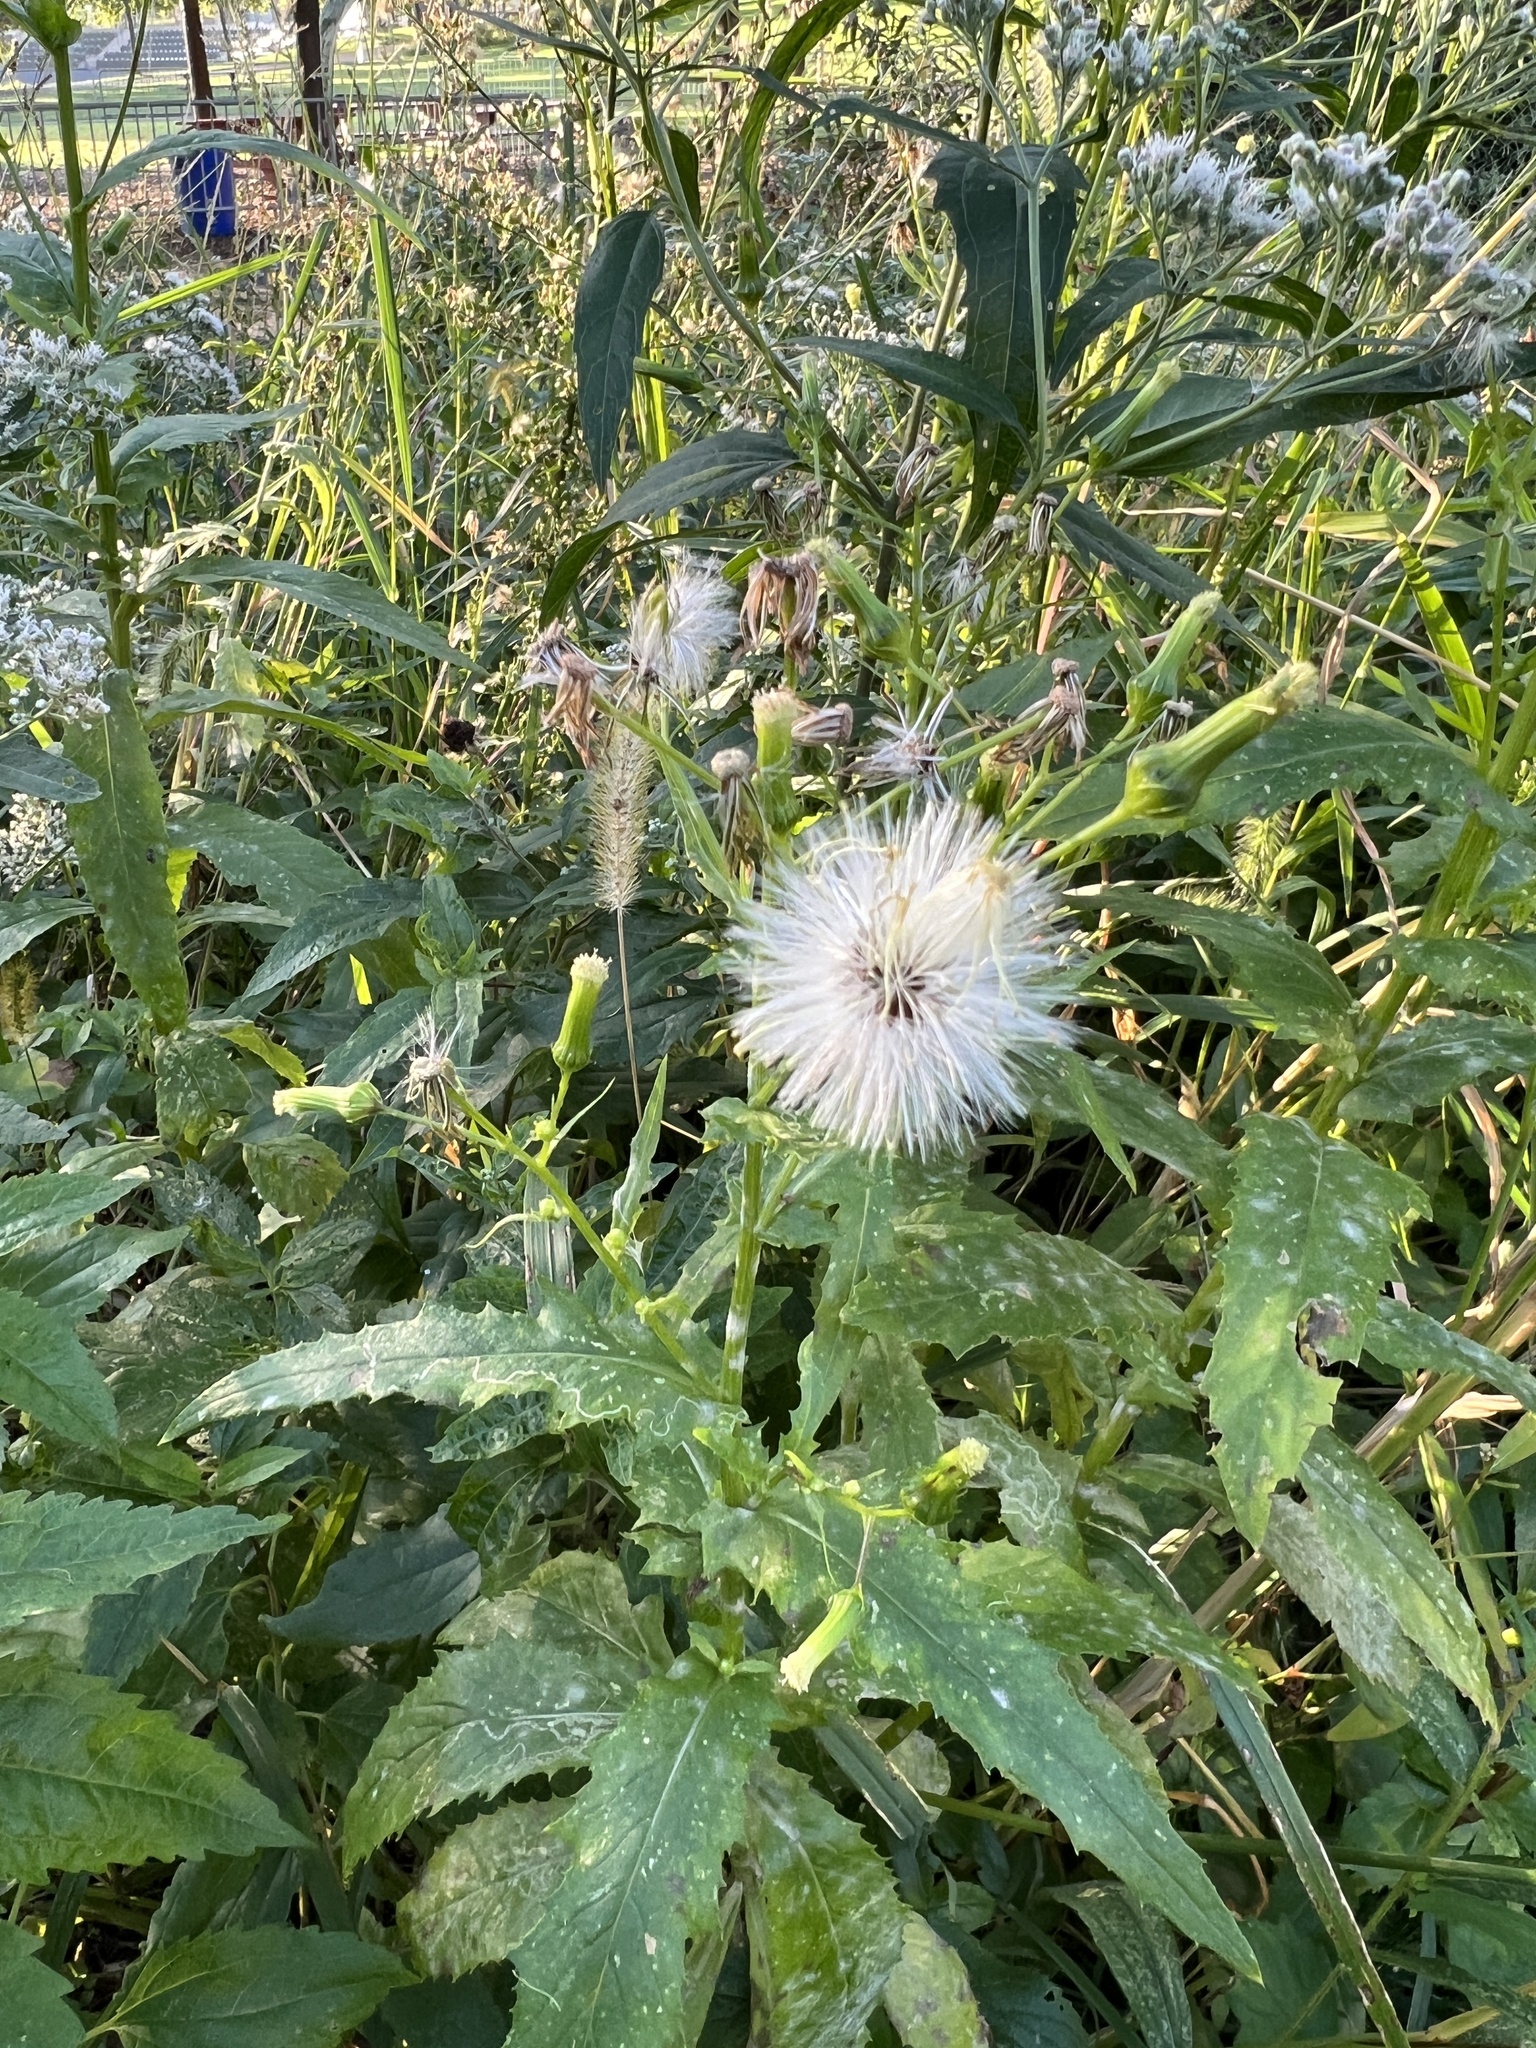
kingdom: Plantae
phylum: Tracheophyta
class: Magnoliopsida
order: Asterales
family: Asteraceae
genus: Erechtites
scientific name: Erechtites hieraciifolius
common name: American burnweed
